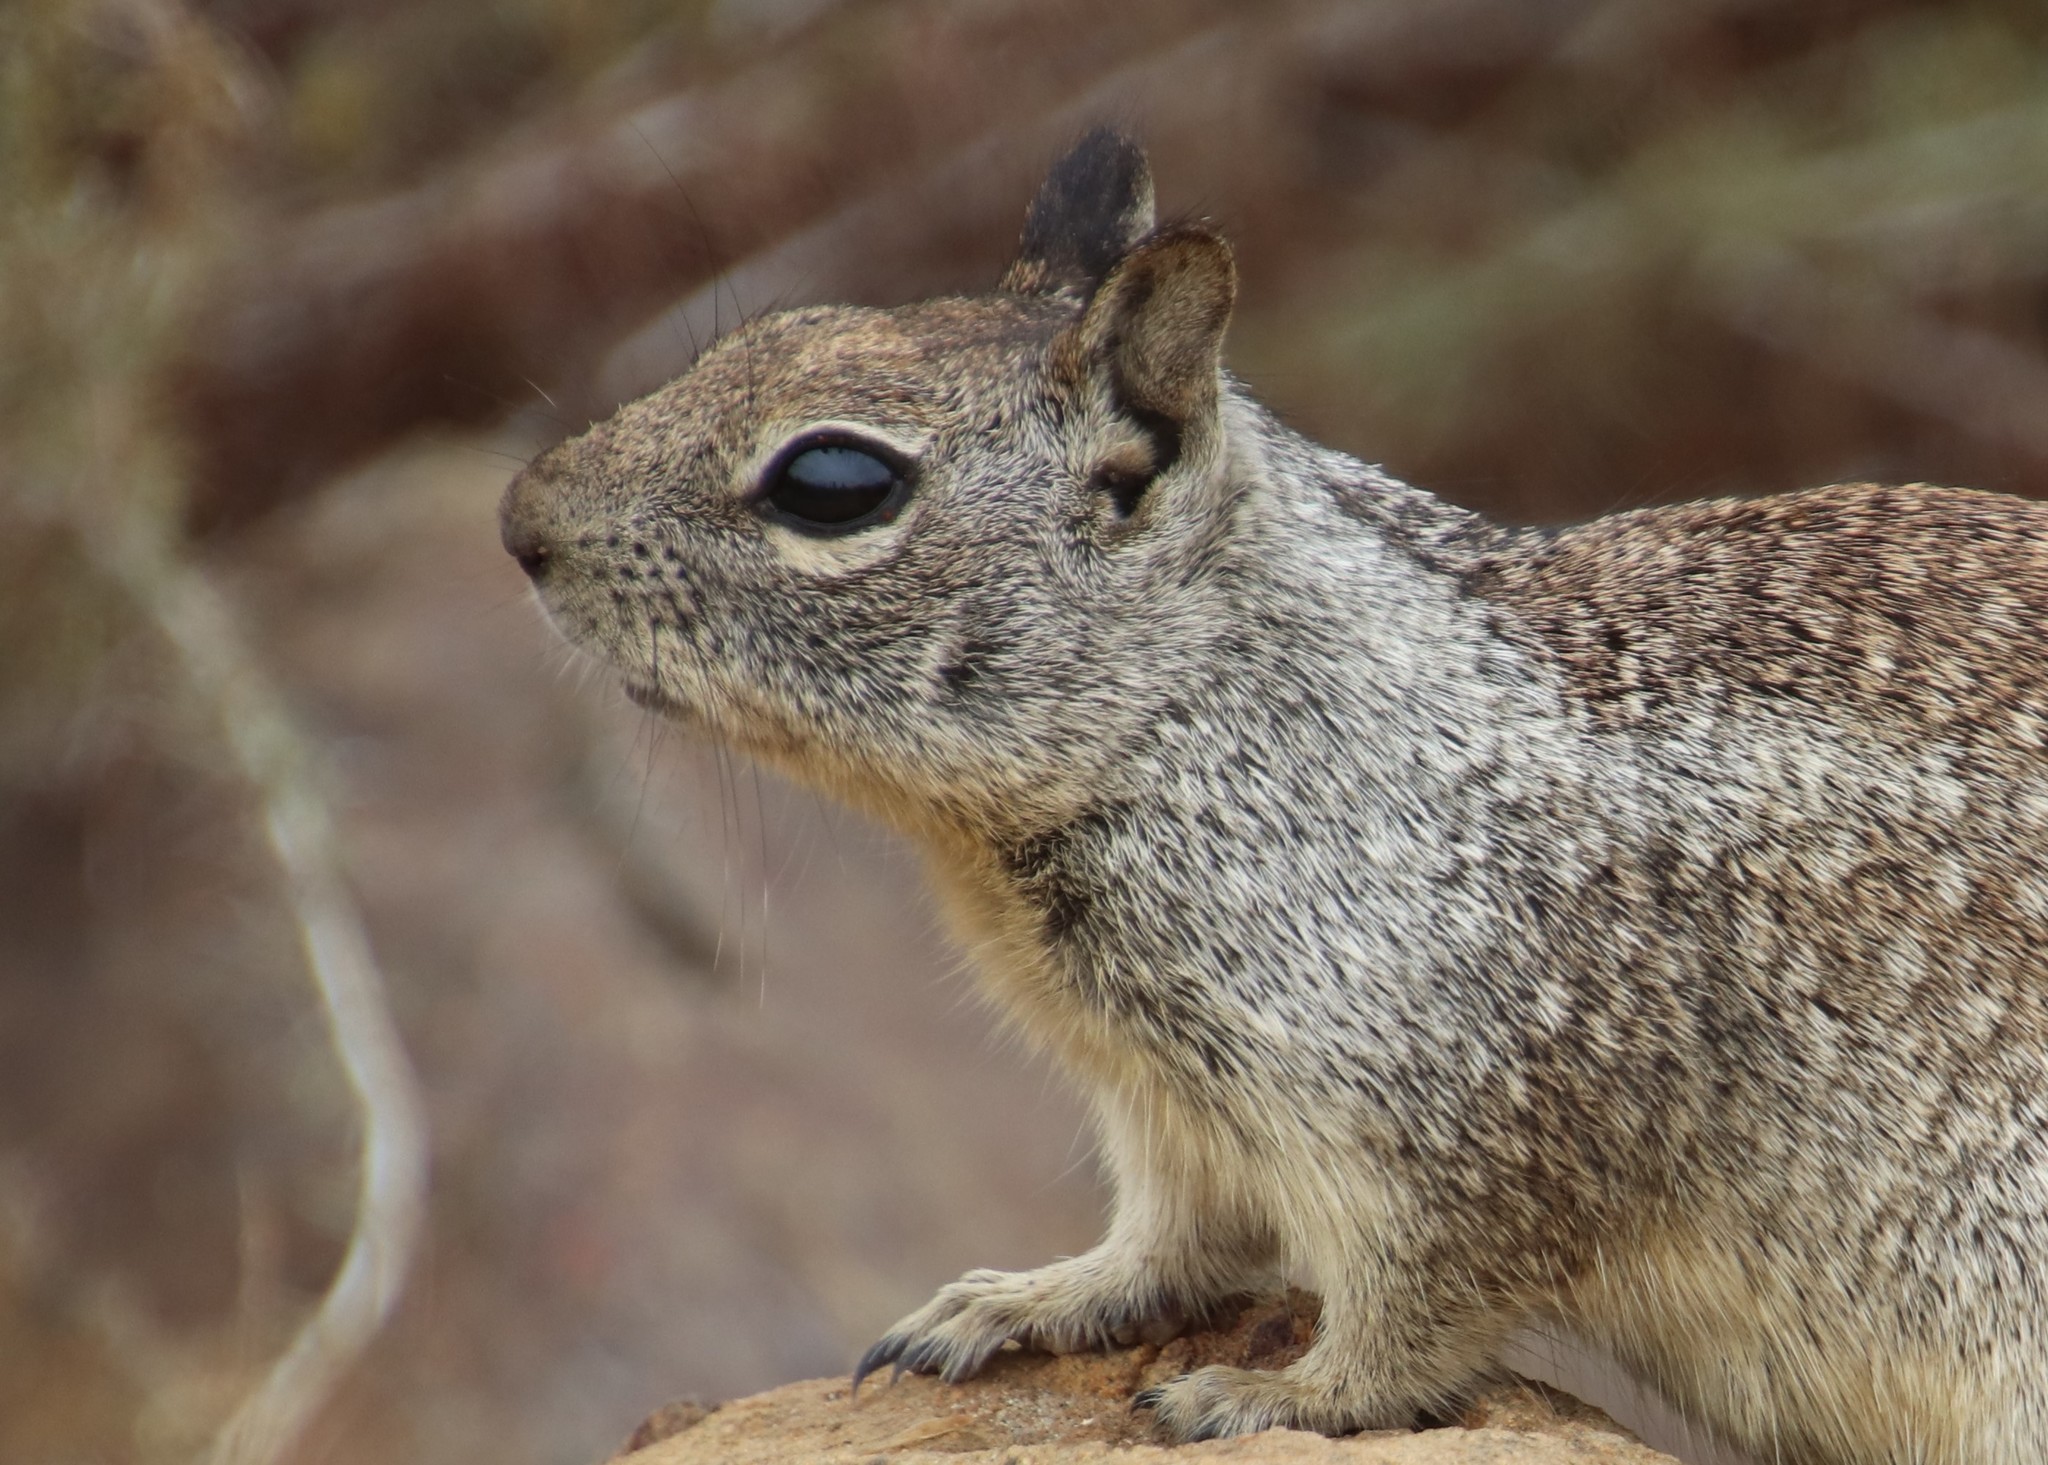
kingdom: Animalia
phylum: Chordata
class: Mammalia
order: Rodentia
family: Sciuridae
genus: Otospermophilus
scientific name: Otospermophilus beecheyi
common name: California ground squirrel
